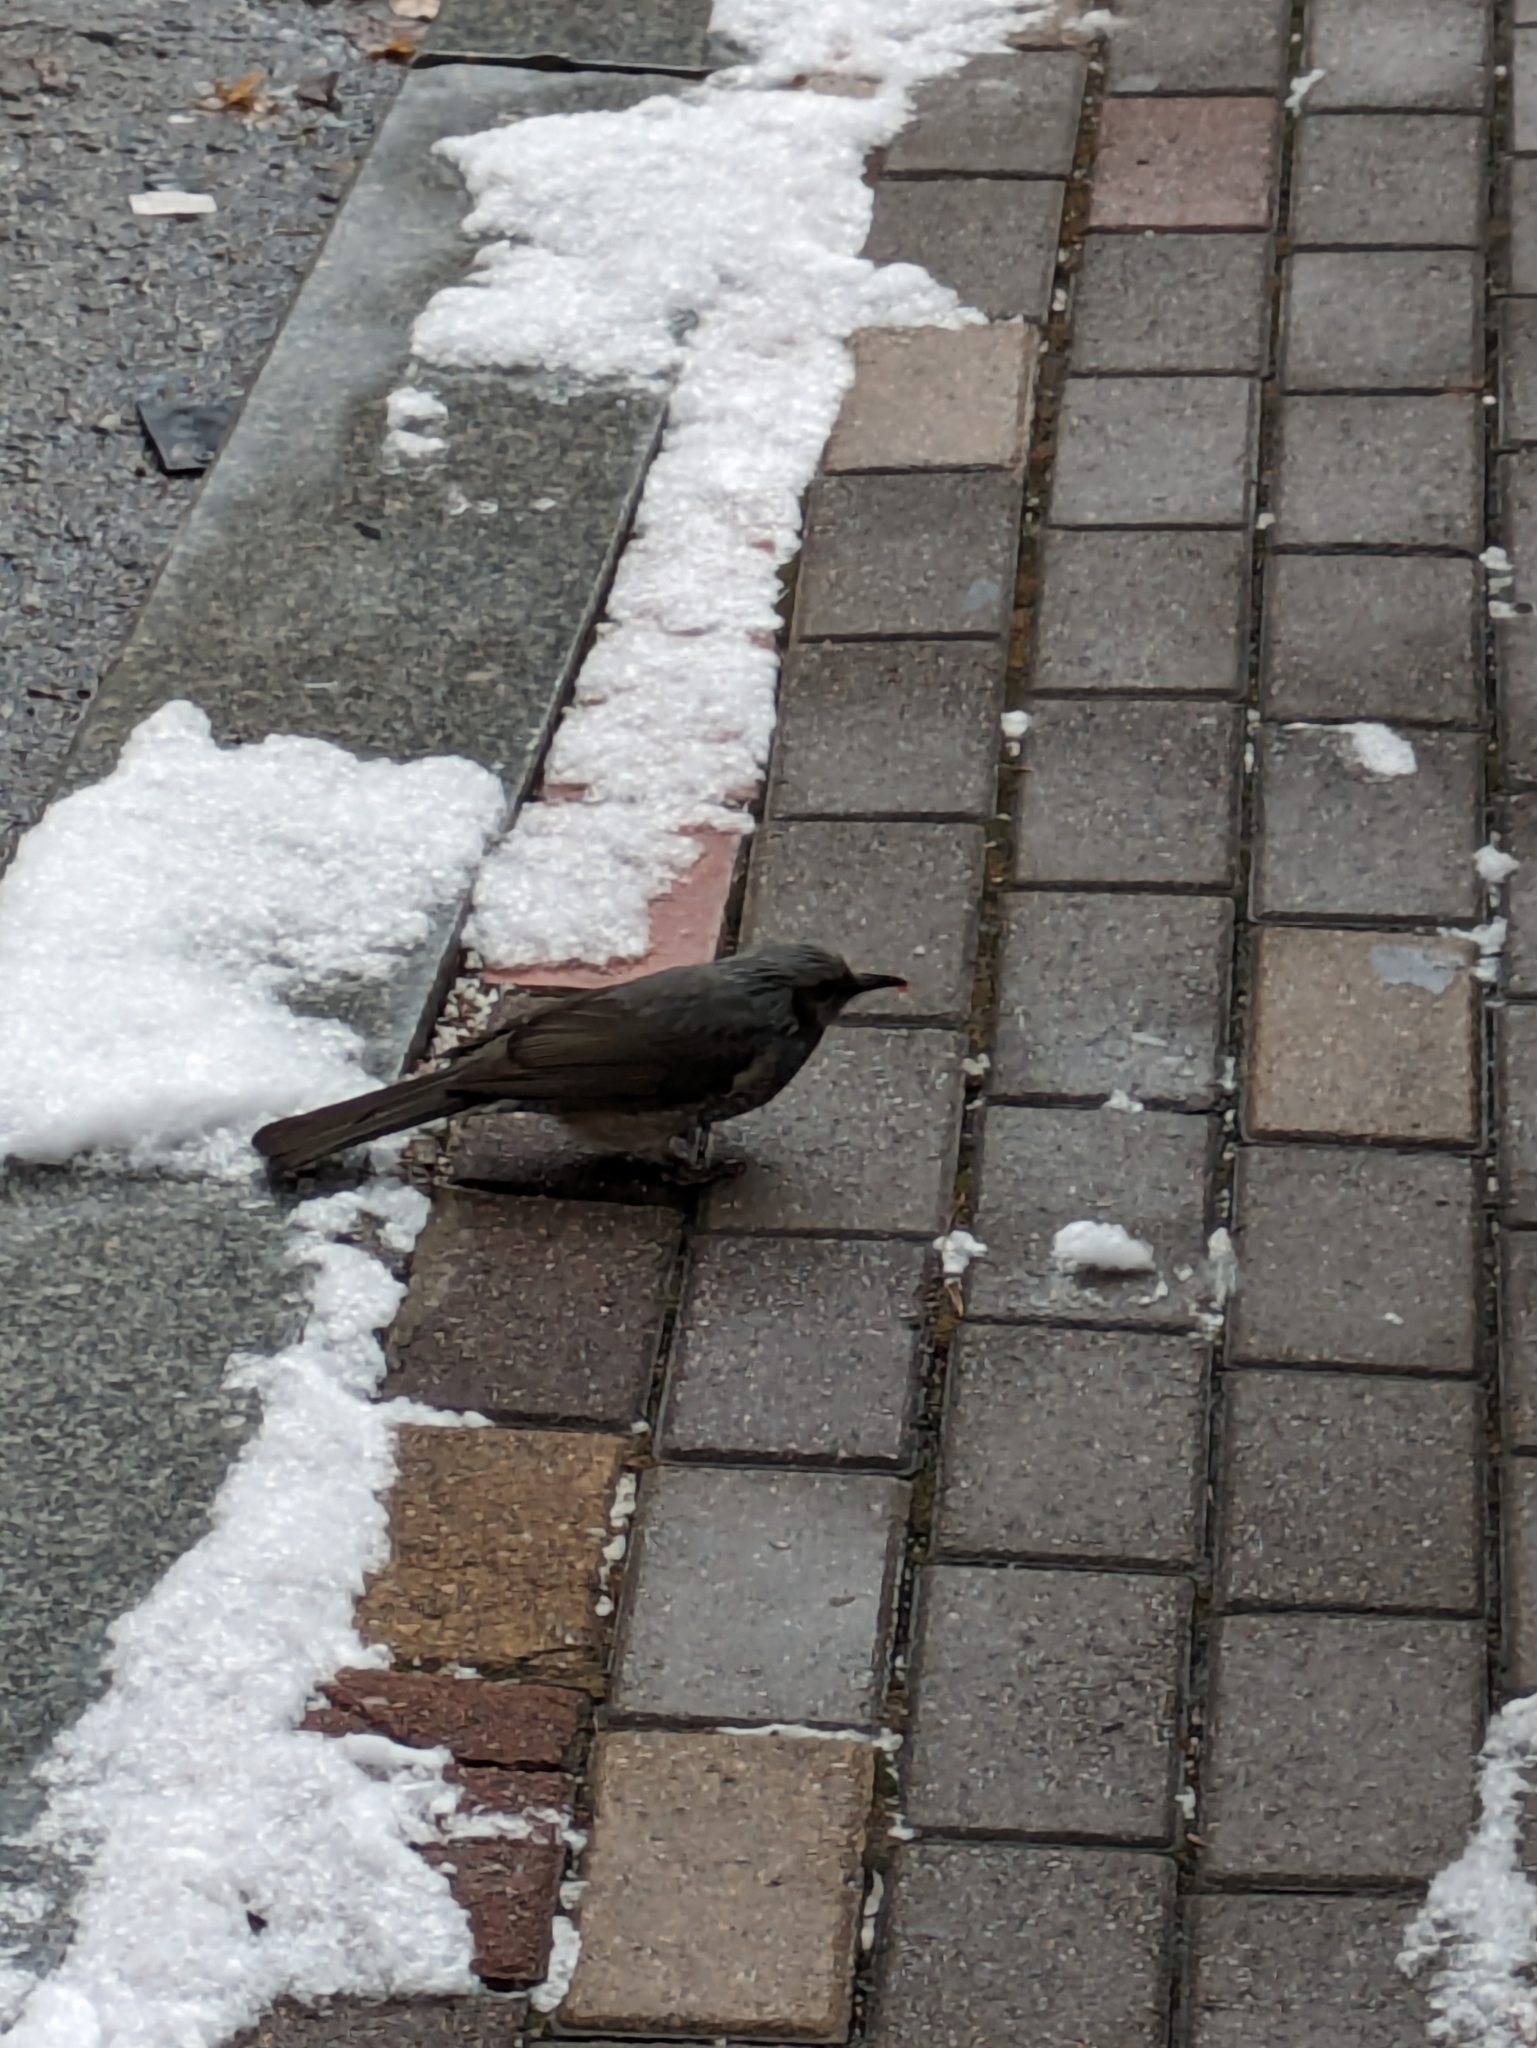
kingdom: Animalia
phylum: Chordata
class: Aves
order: Passeriformes
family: Pycnonotidae
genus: Hypsipetes
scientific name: Hypsipetes amaurotis
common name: Brown-eared bulbul
